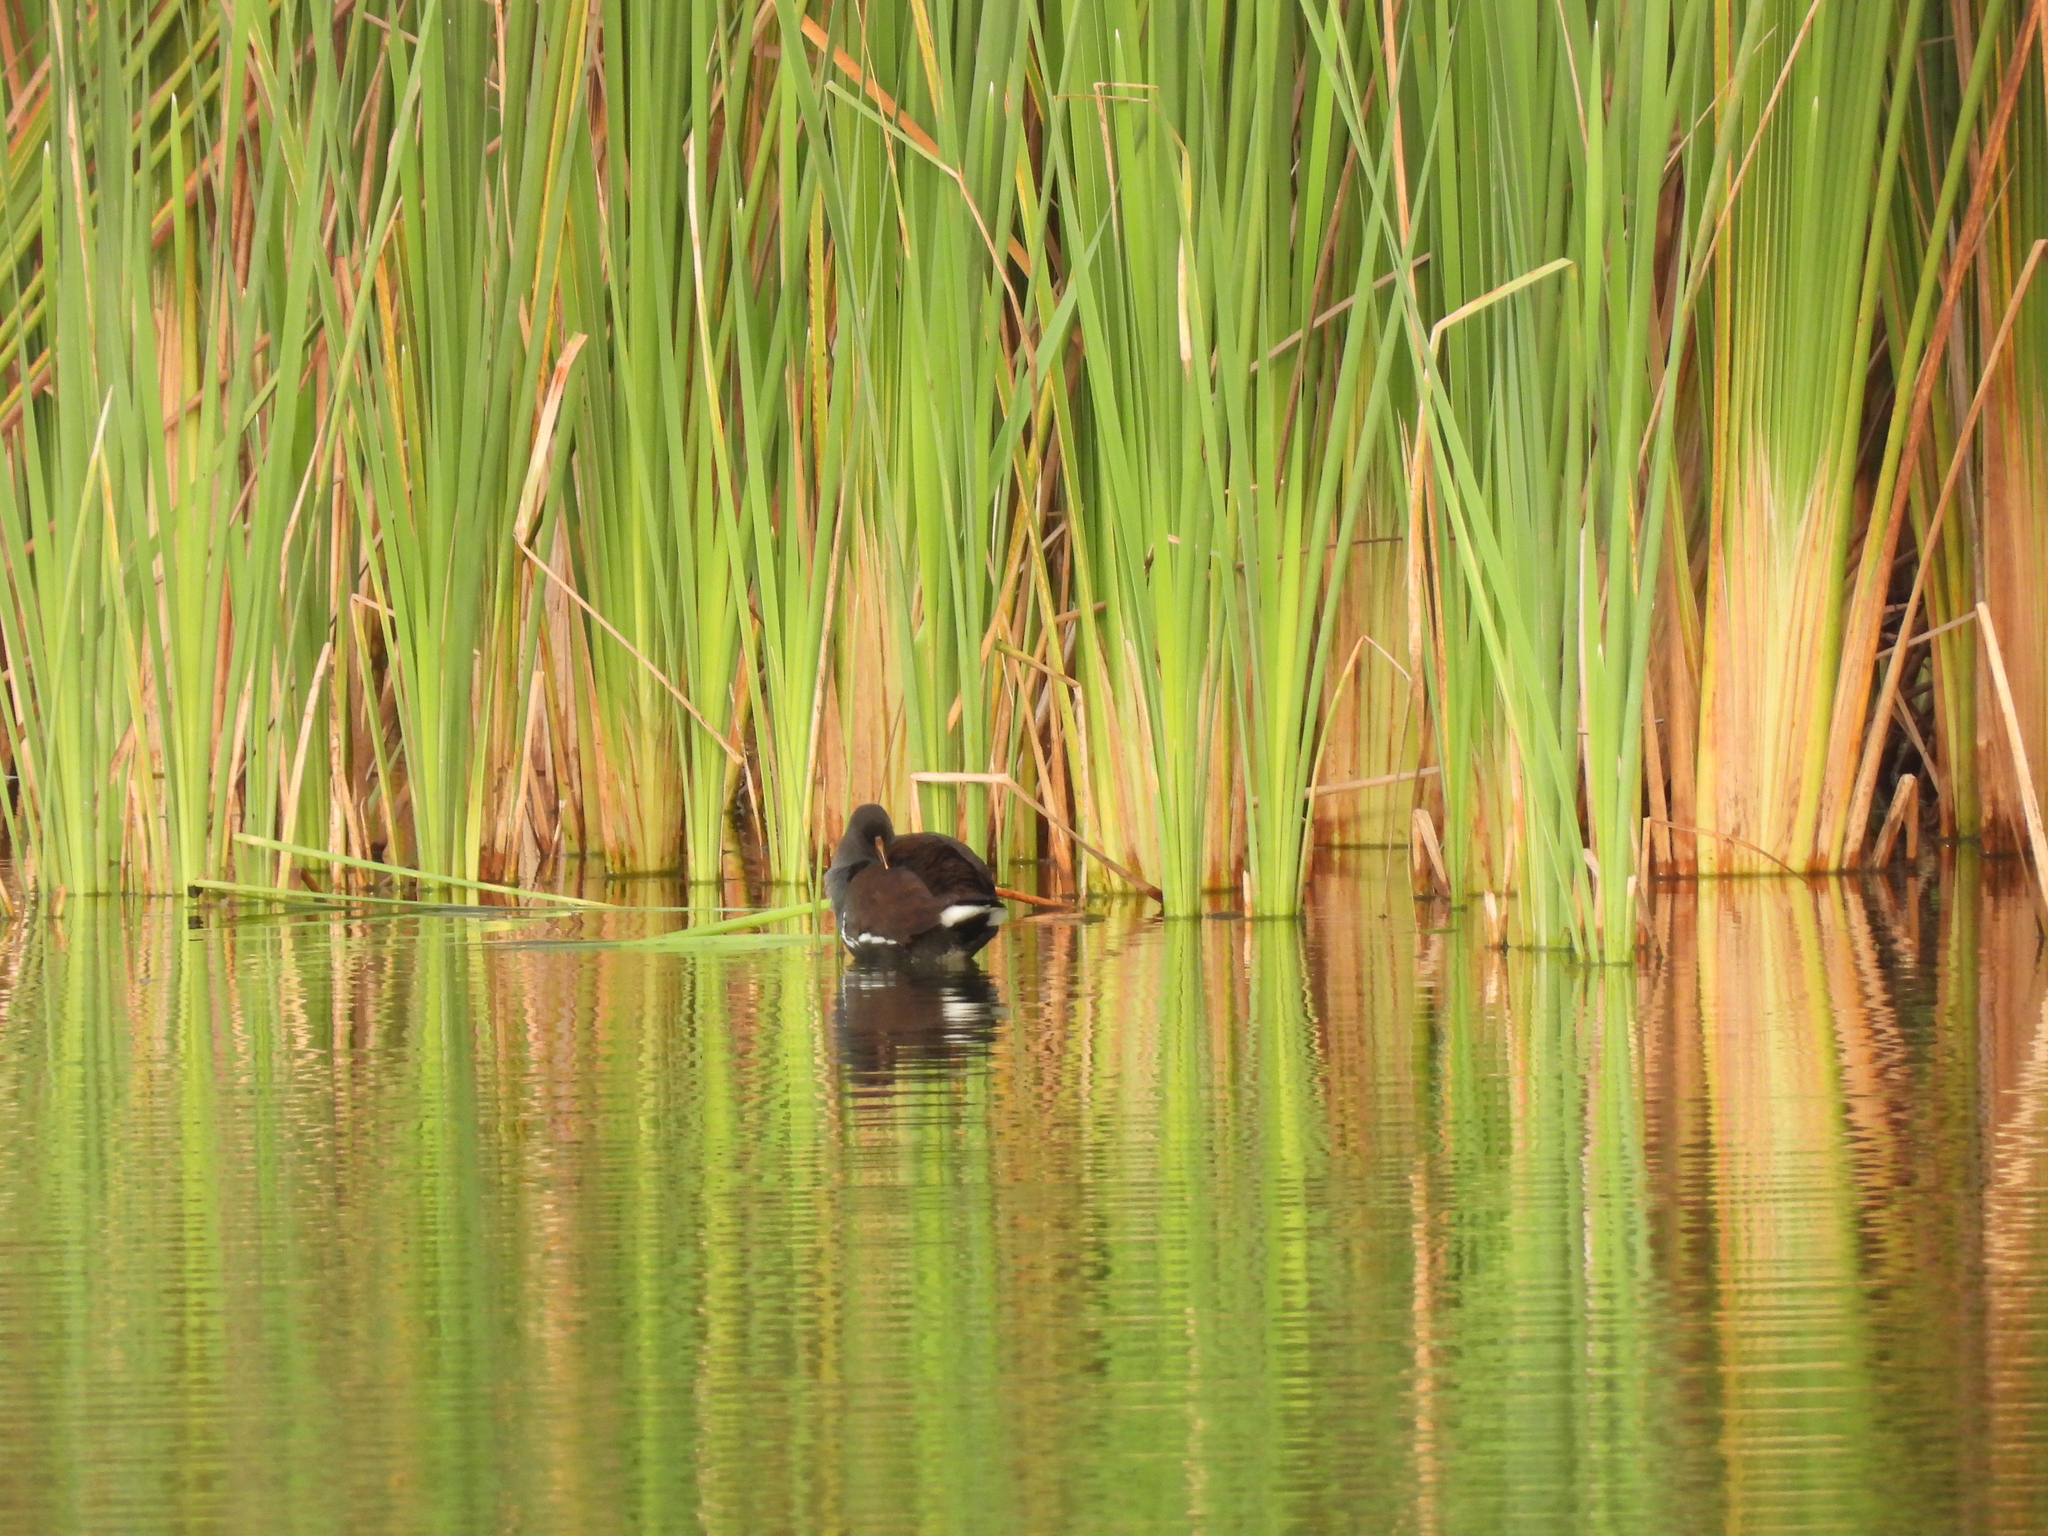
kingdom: Animalia
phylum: Chordata
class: Aves
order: Gruiformes
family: Rallidae
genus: Gallinula
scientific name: Gallinula chloropus
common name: Common moorhen
